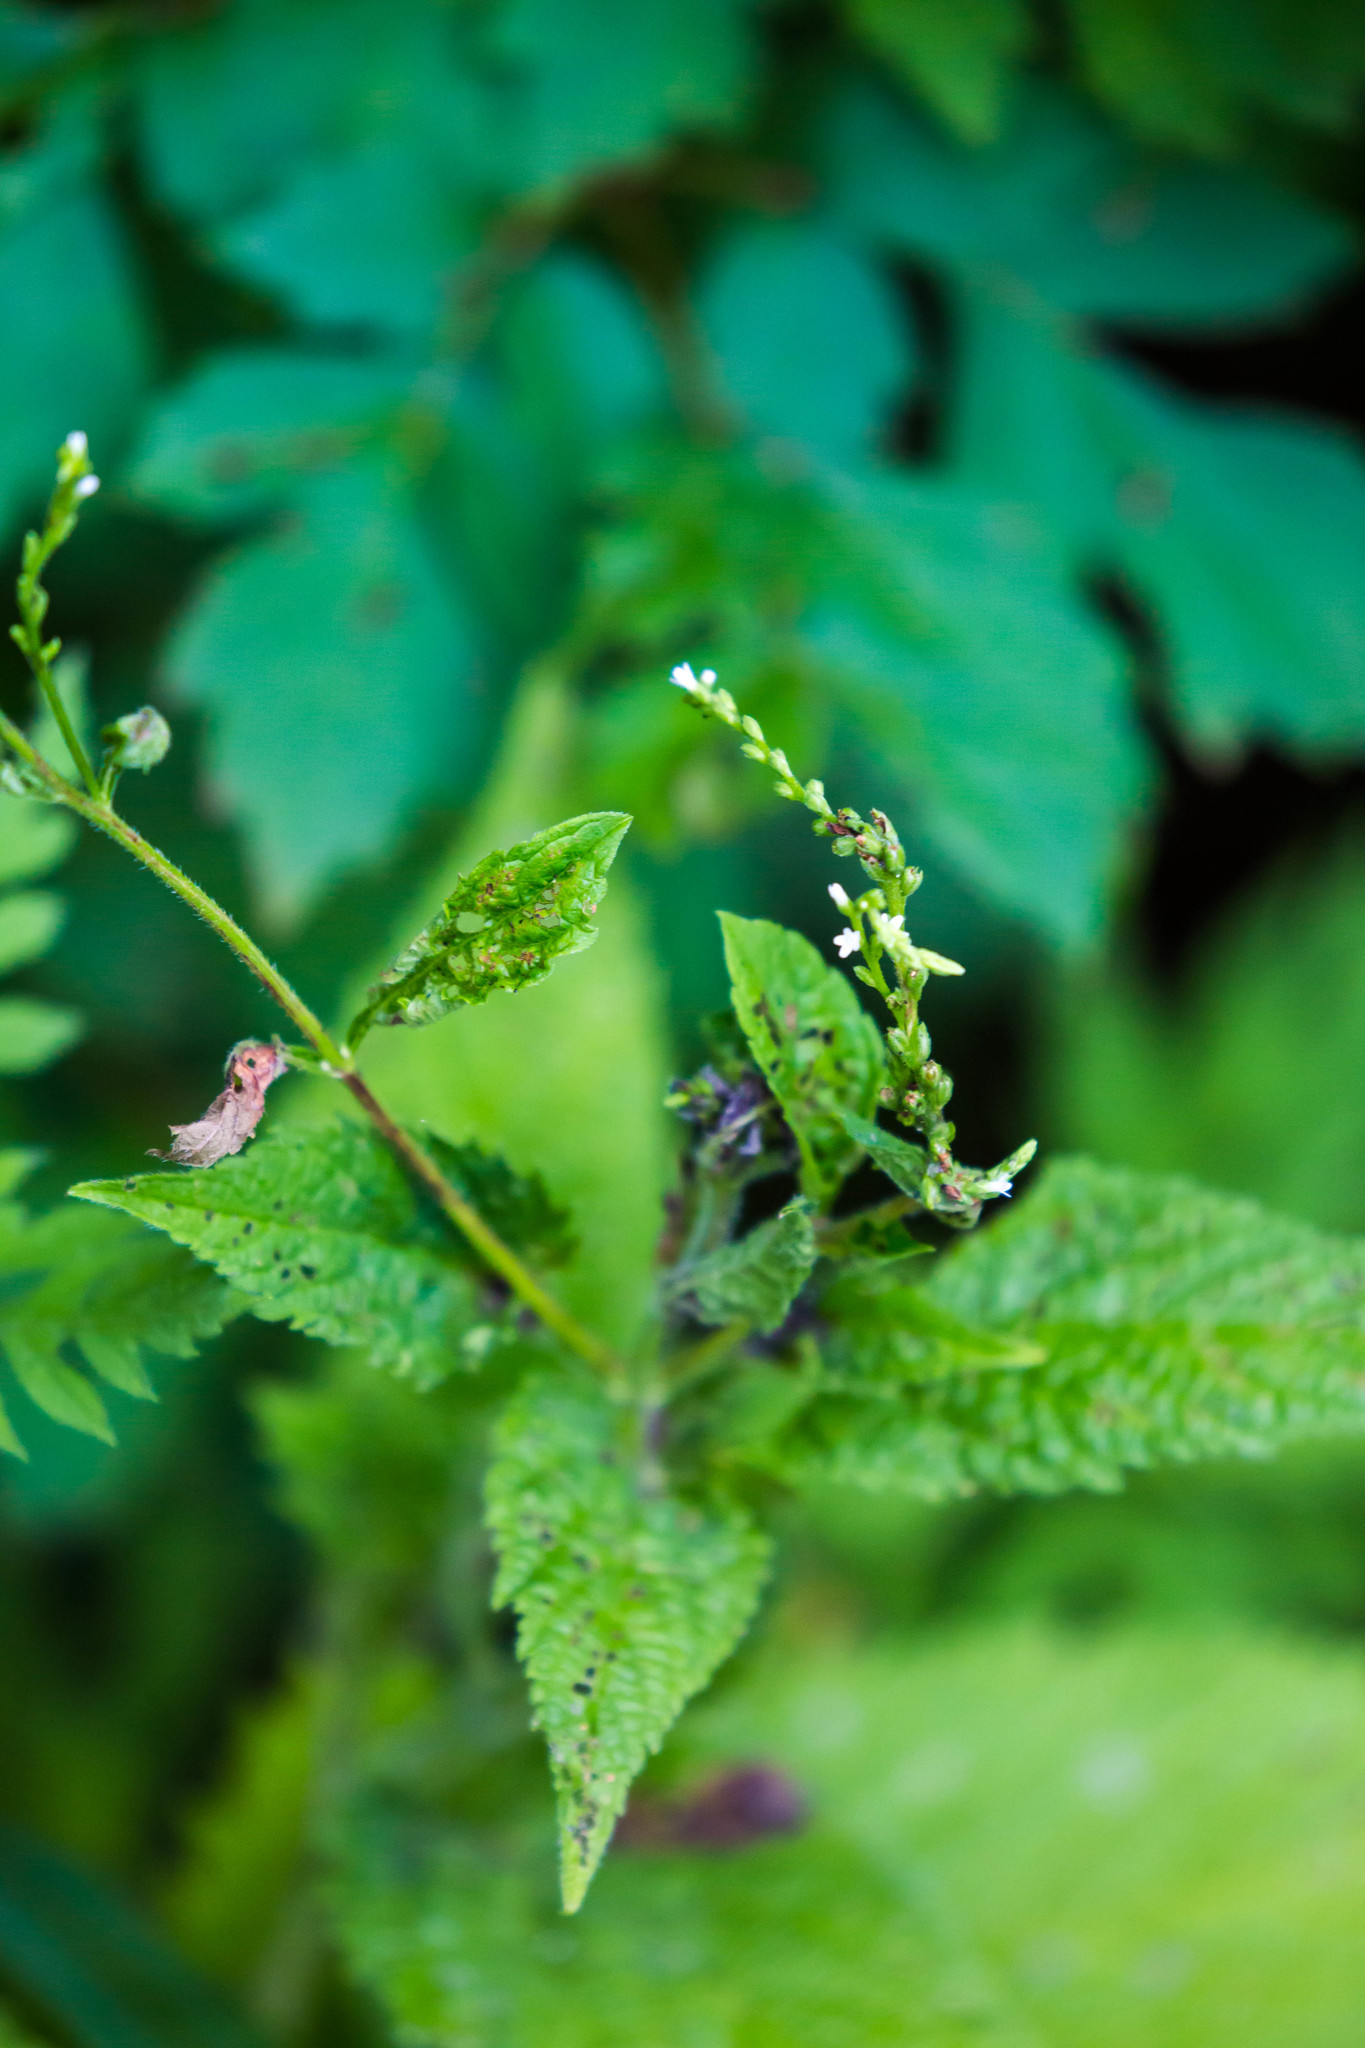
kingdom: Plantae
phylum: Tracheophyta
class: Magnoliopsida
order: Lamiales
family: Verbenaceae
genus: Verbena
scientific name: Verbena urticifolia
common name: Nettle-leaved vervain
